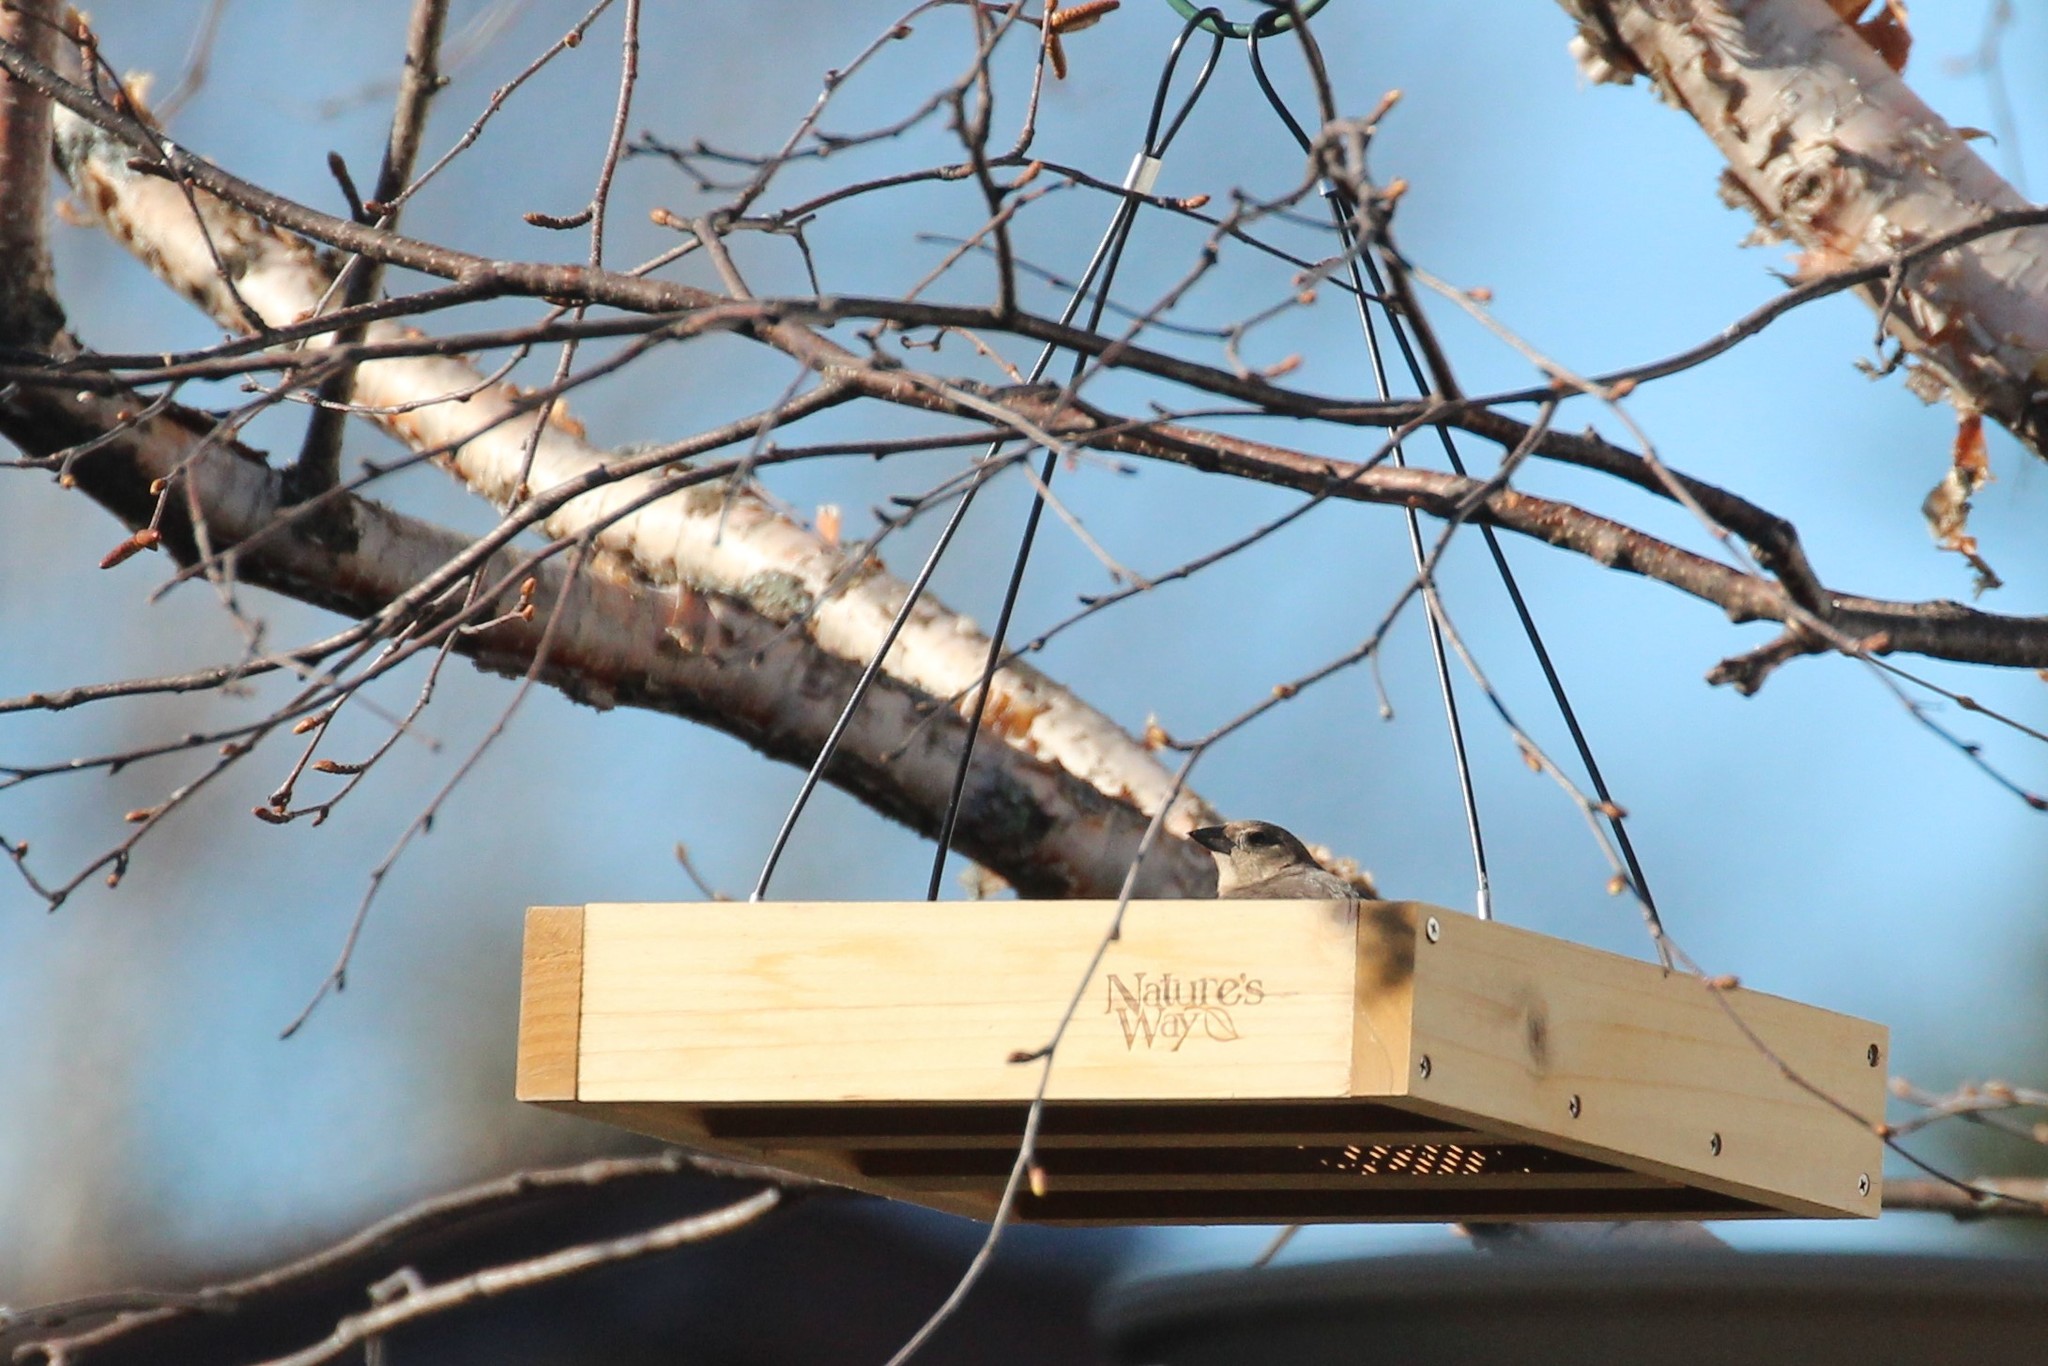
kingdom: Animalia
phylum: Chordata
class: Aves
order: Passeriformes
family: Icteridae
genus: Molothrus
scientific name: Molothrus ater
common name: Brown-headed cowbird
